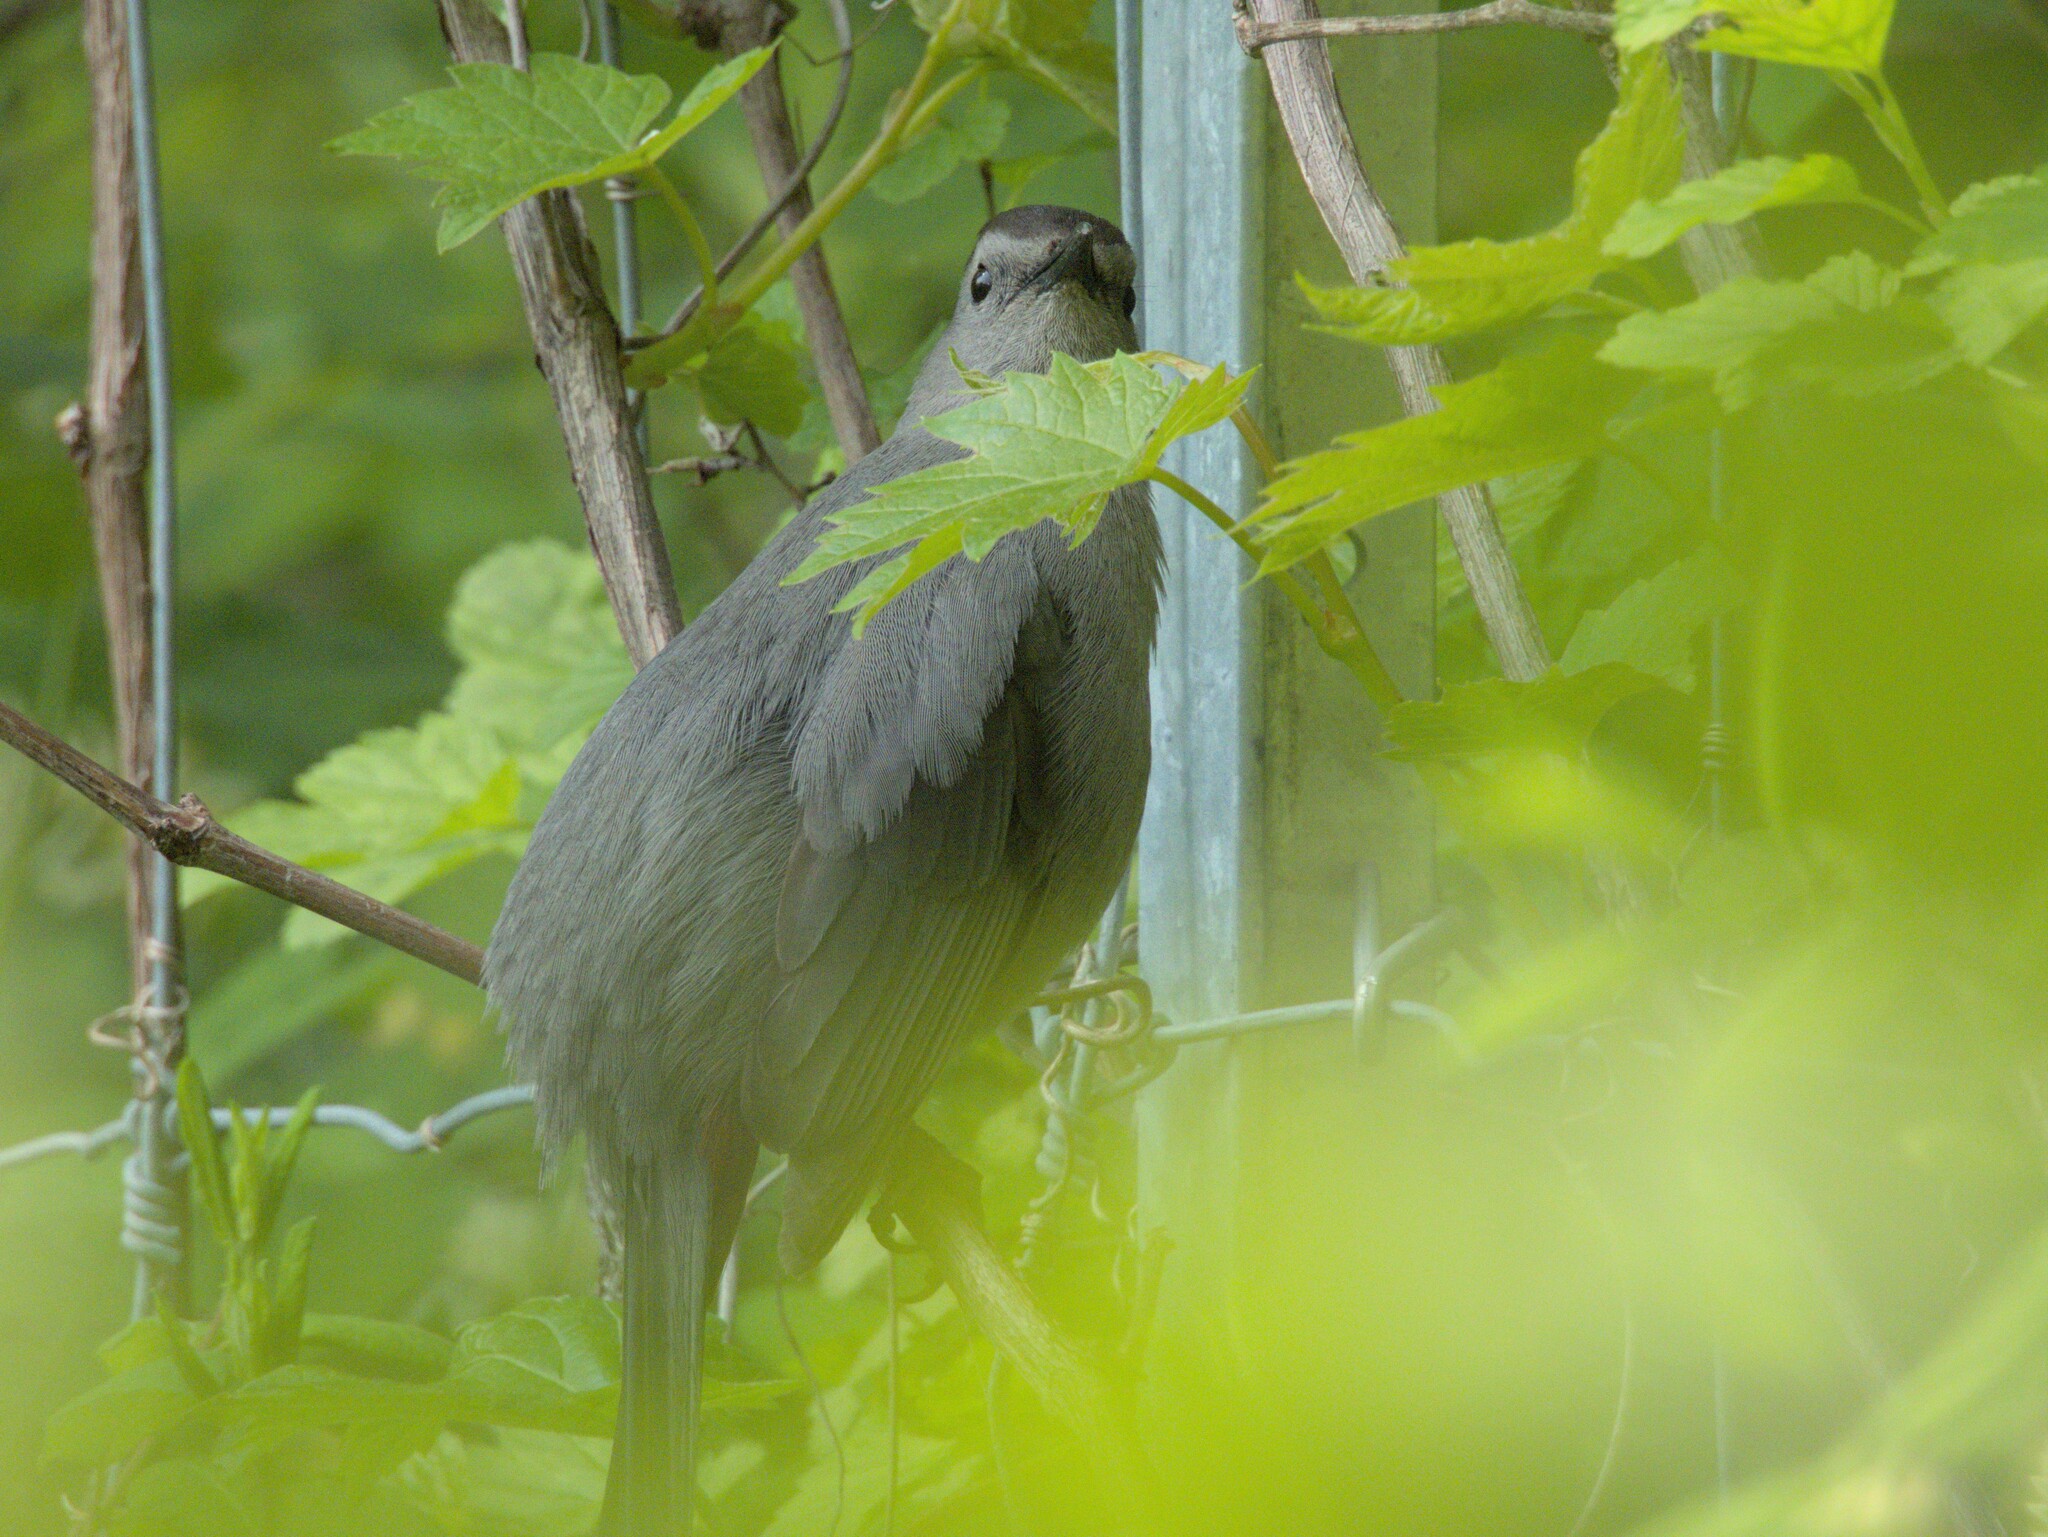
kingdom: Animalia
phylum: Chordata
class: Aves
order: Passeriformes
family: Mimidae
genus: Dumetella
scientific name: Dumetella carolinensis
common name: Gray catbird
